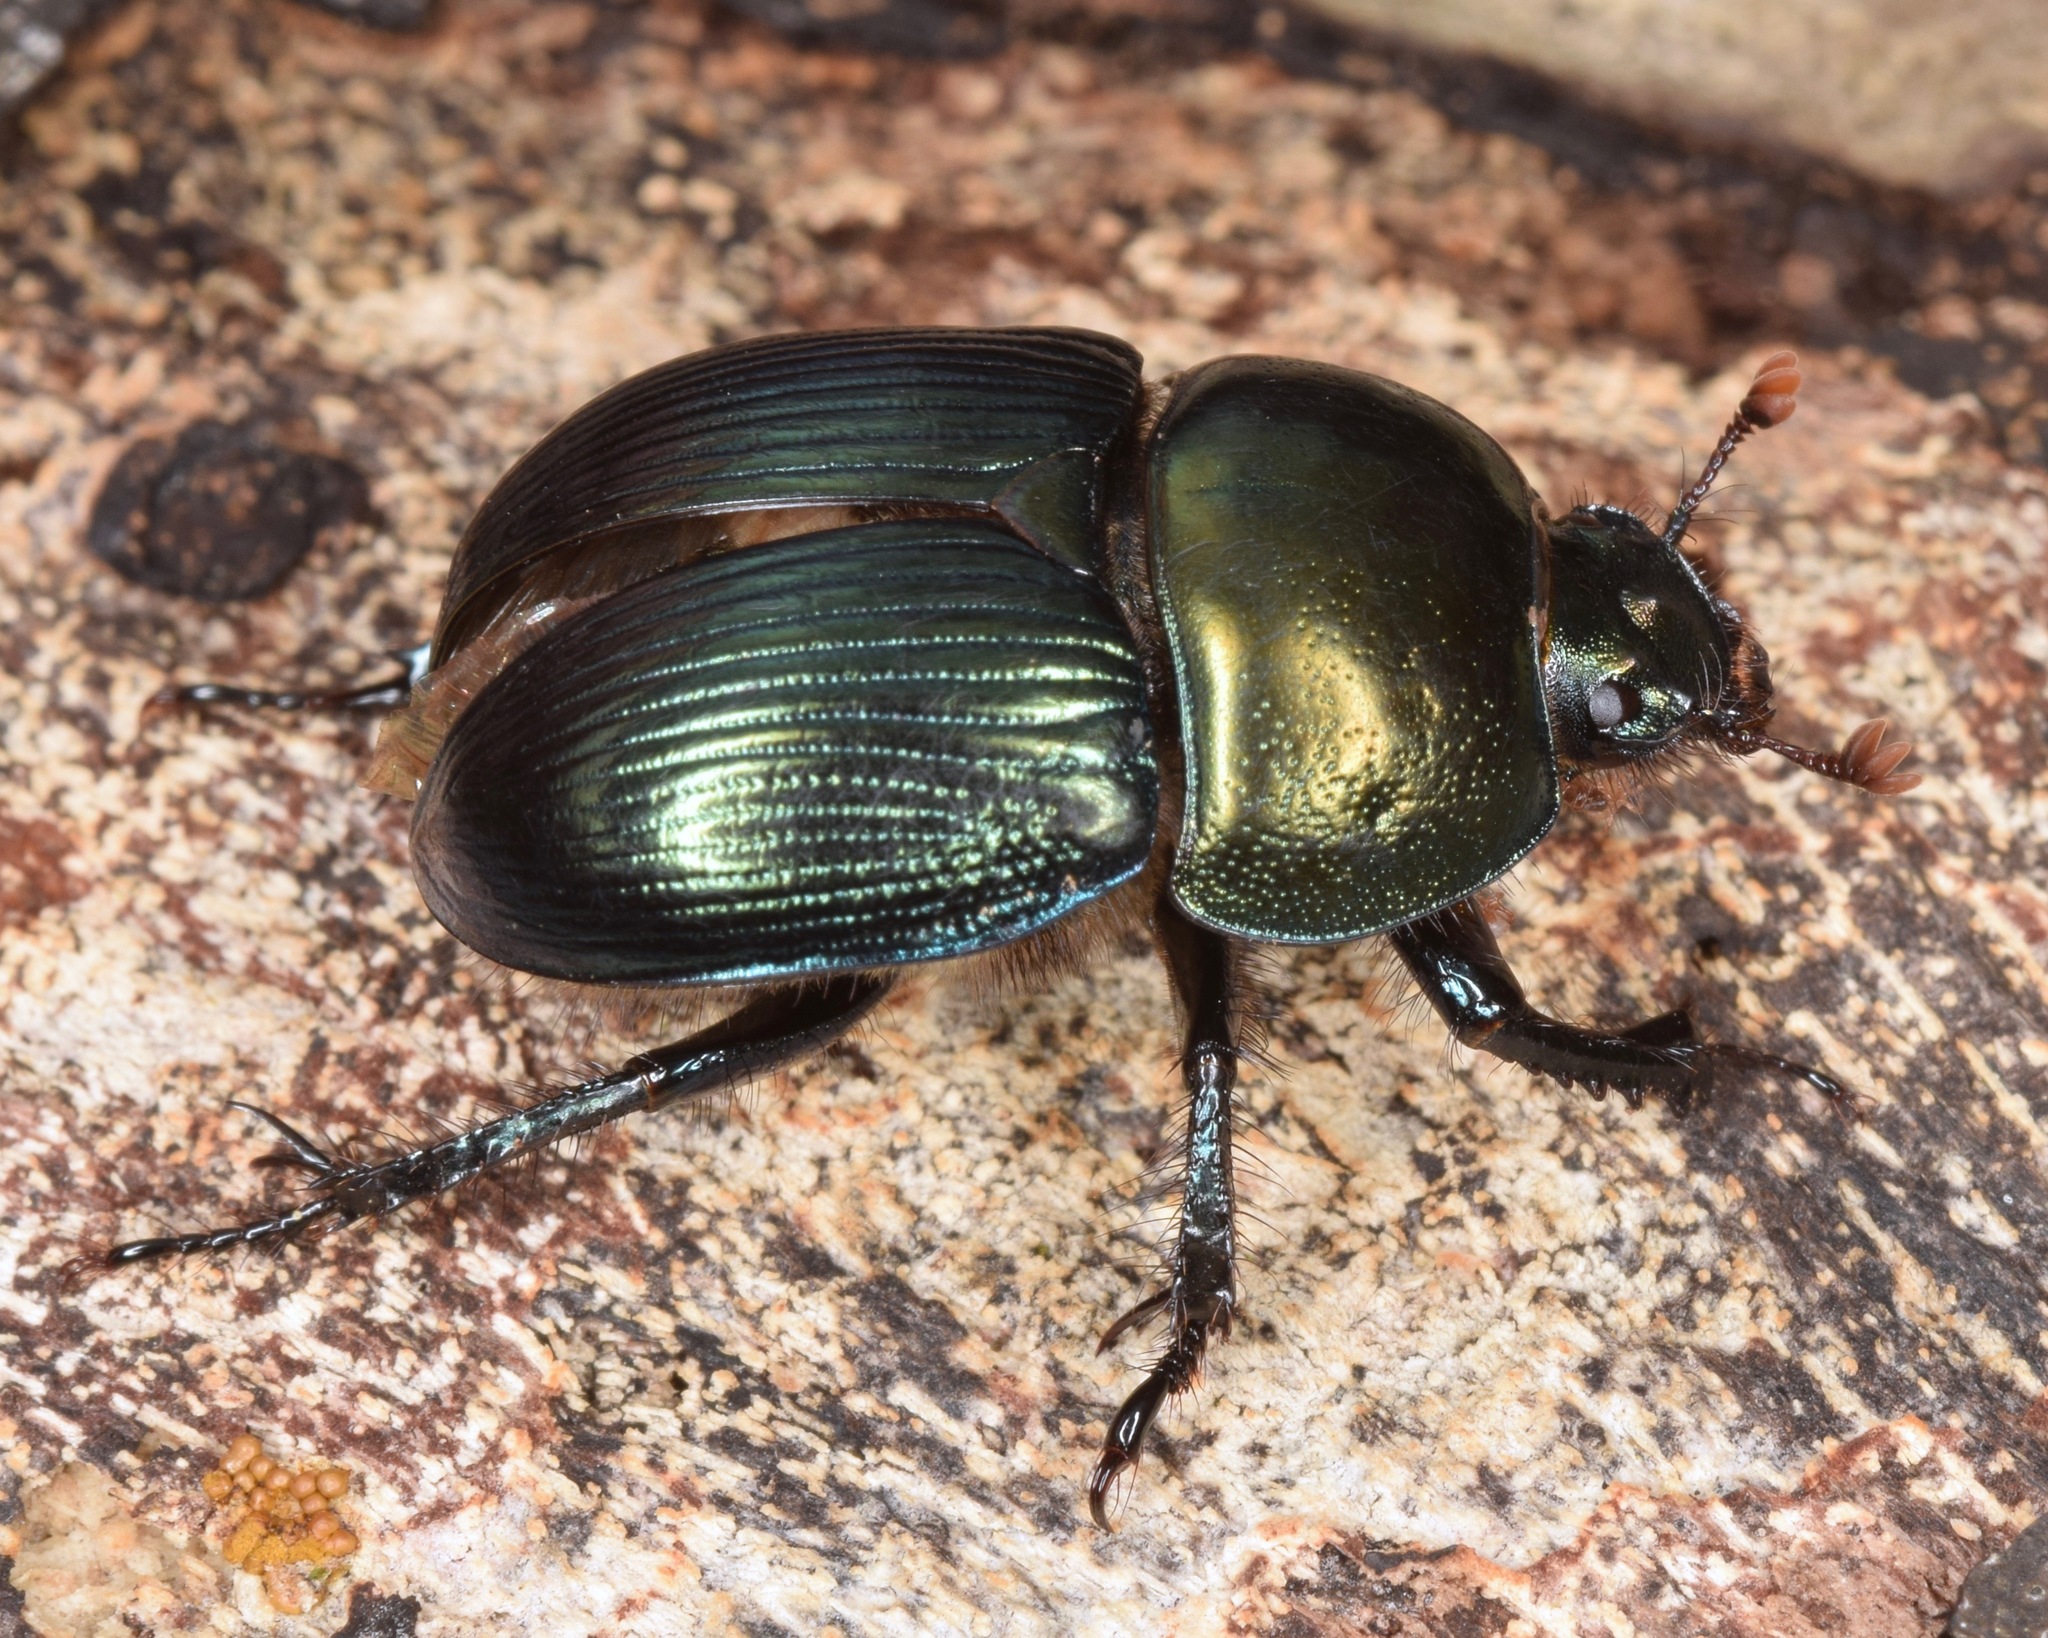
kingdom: Animalia
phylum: Arthropoda
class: Insecta
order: Coleoptera
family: Geotrupidae
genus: Geotrupes
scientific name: Geotrupes splendidus
